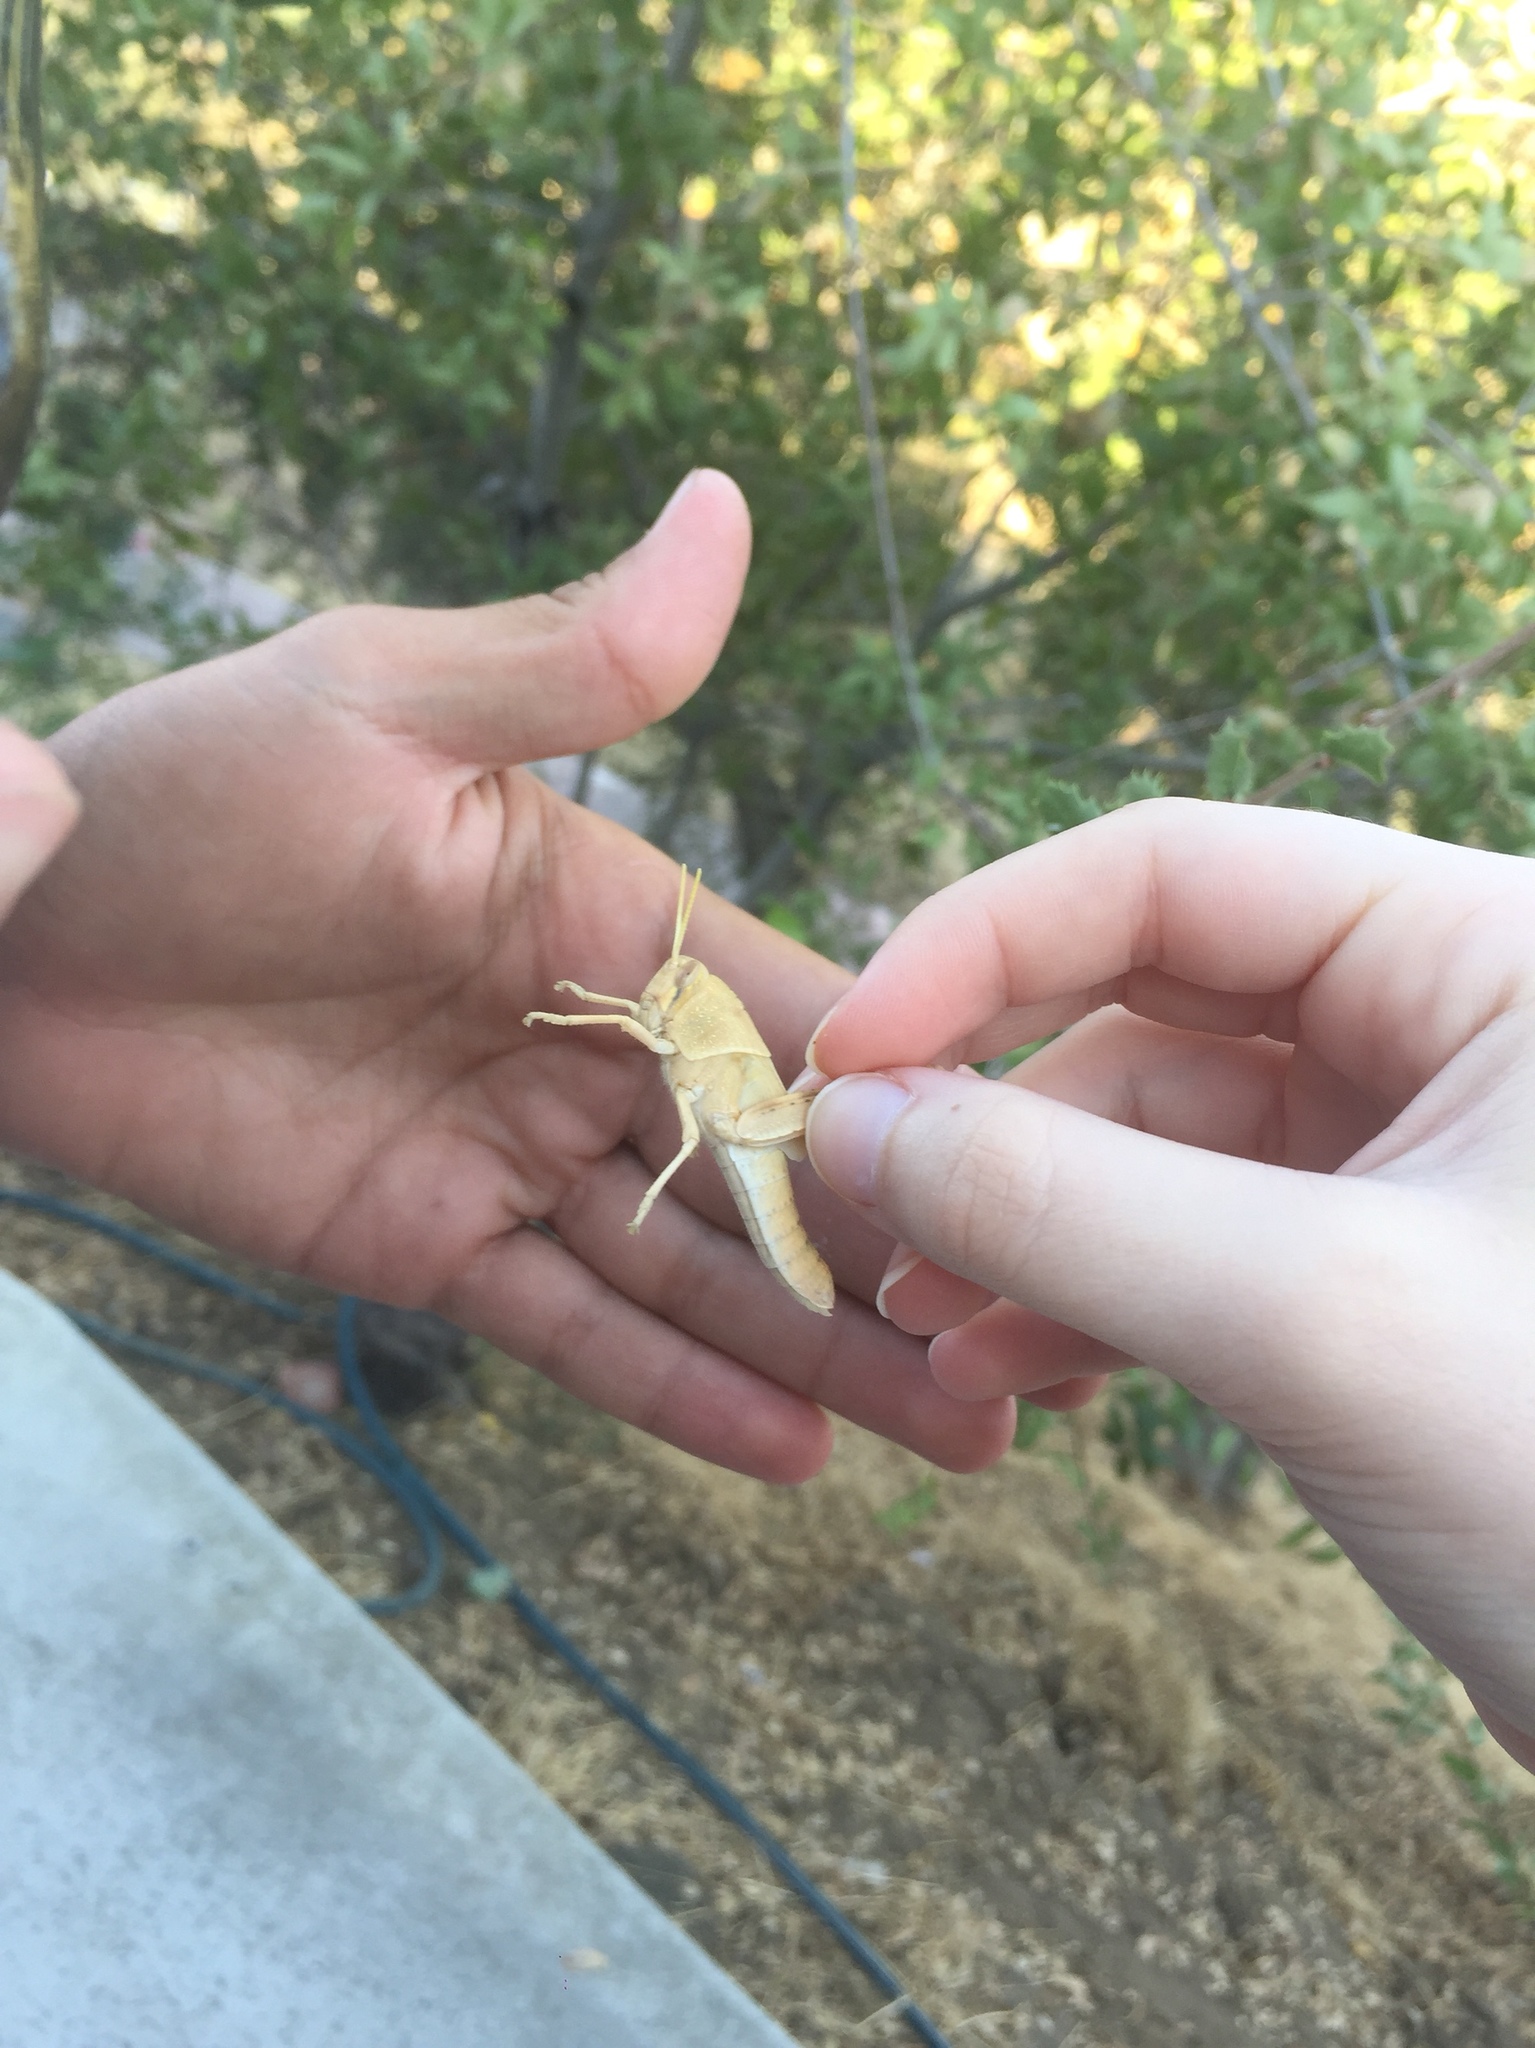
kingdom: Animalia
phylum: Arthropoda
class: Insecta
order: Orthoptera
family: Acrididae
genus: Schistocerca
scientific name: Schistocerca nitens
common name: Vagrant grasshopper
